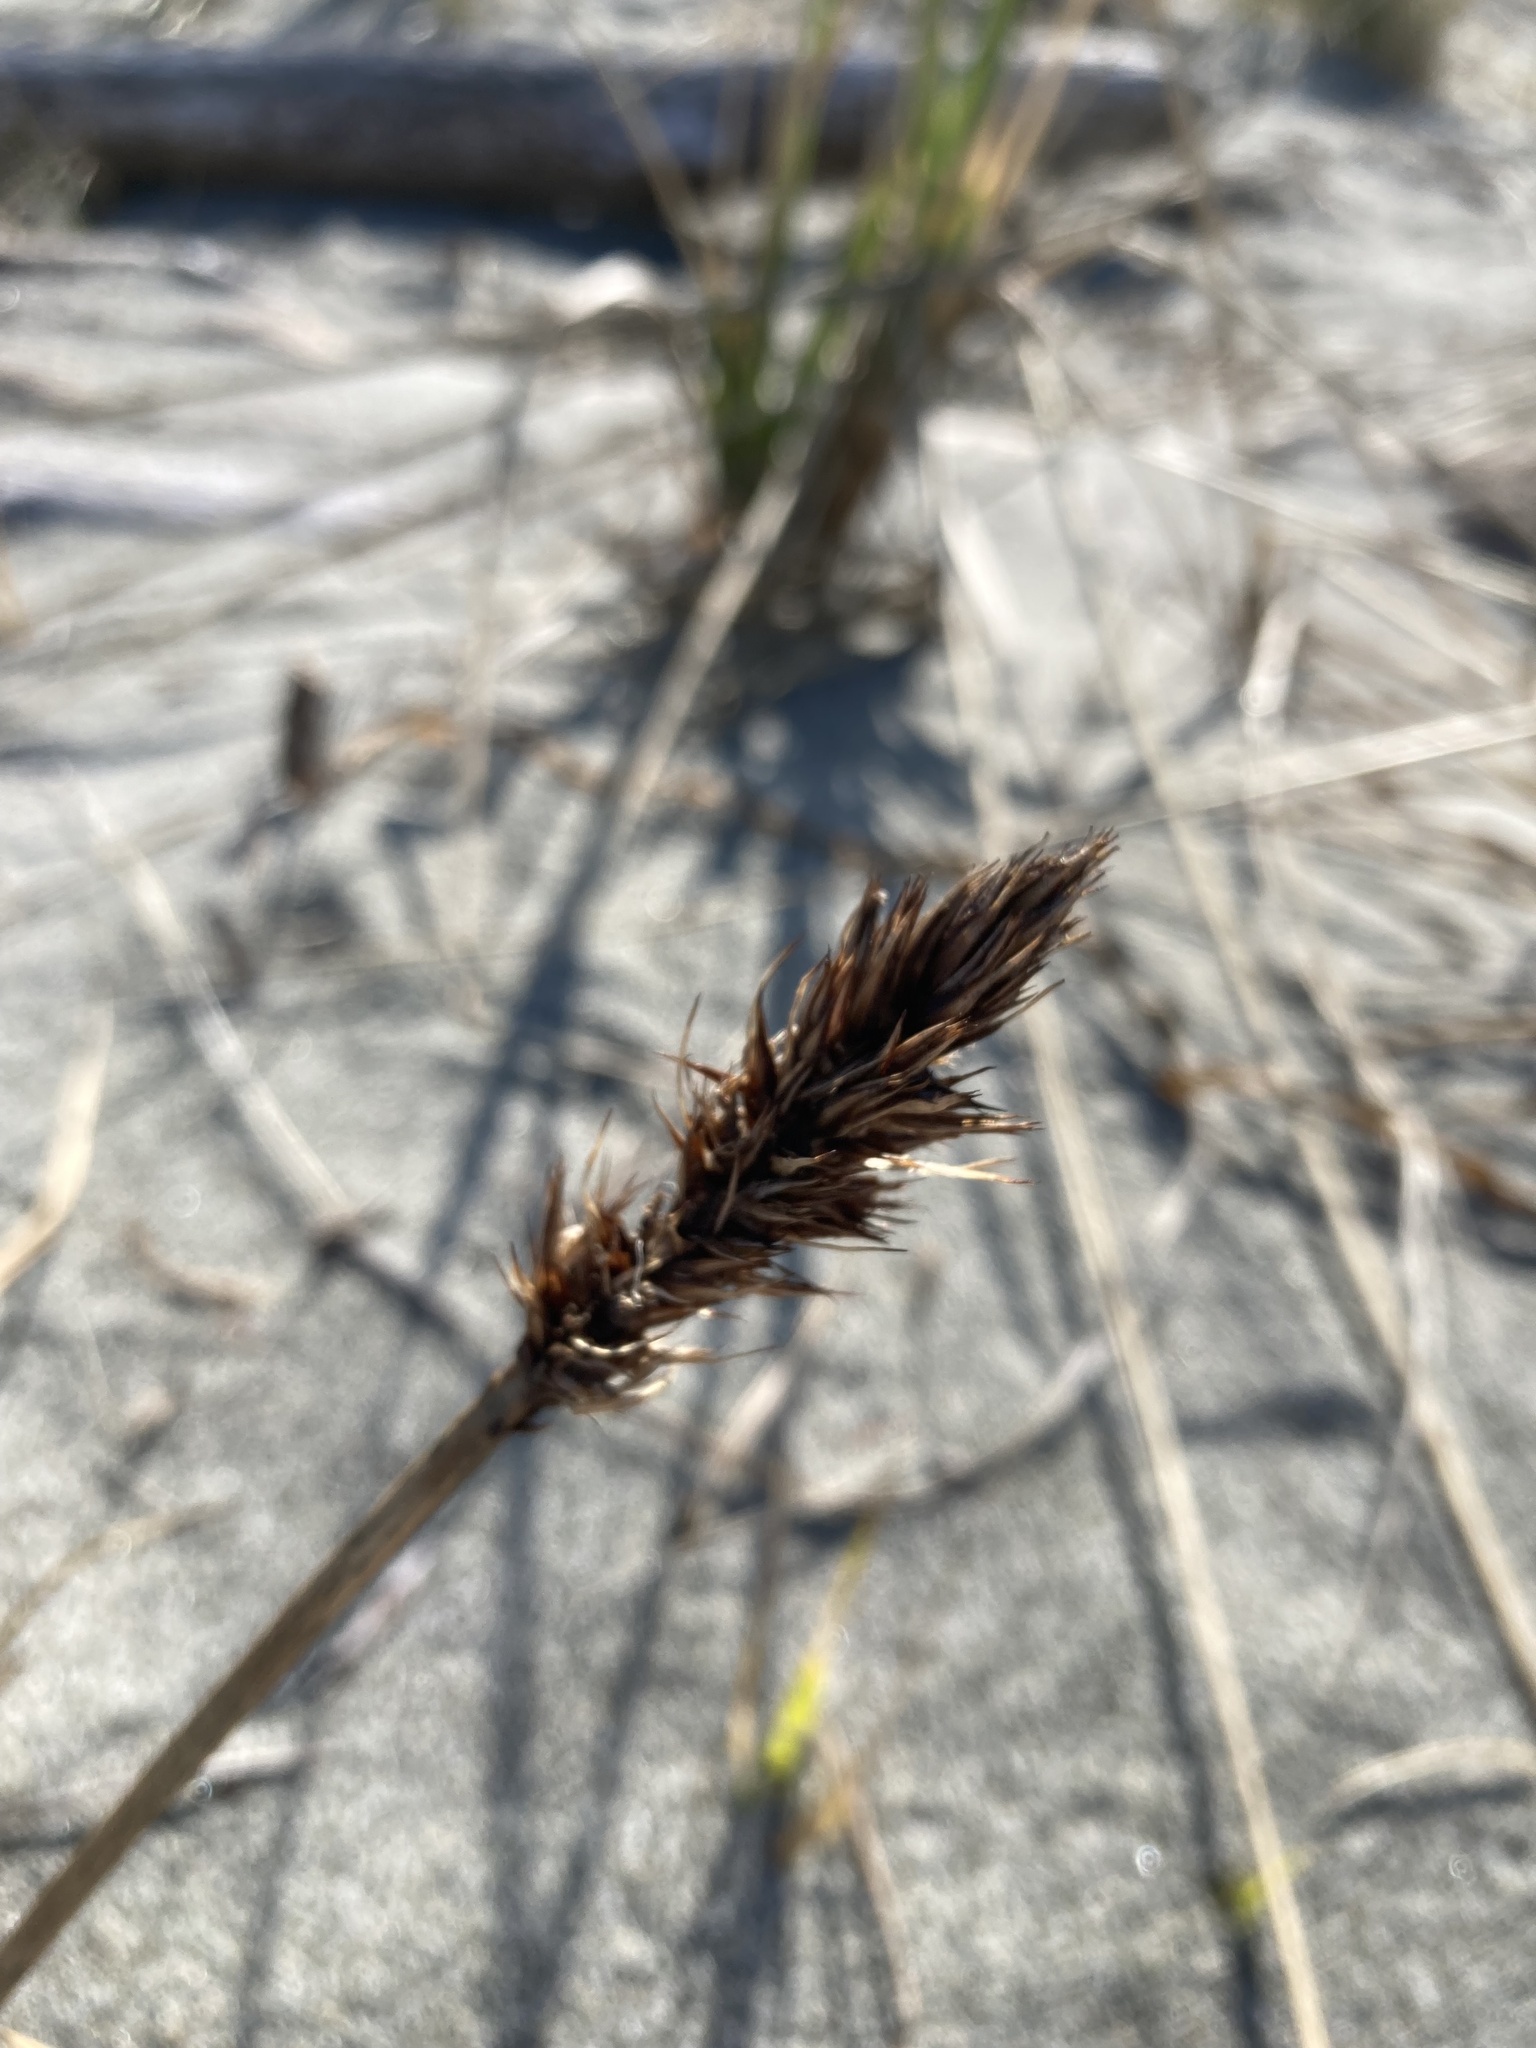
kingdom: Plantae
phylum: Tracheophyta
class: Liliopsida
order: Poales
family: Cyperaceae
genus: Carex
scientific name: Carex macrocephala
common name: Large-head sedge
